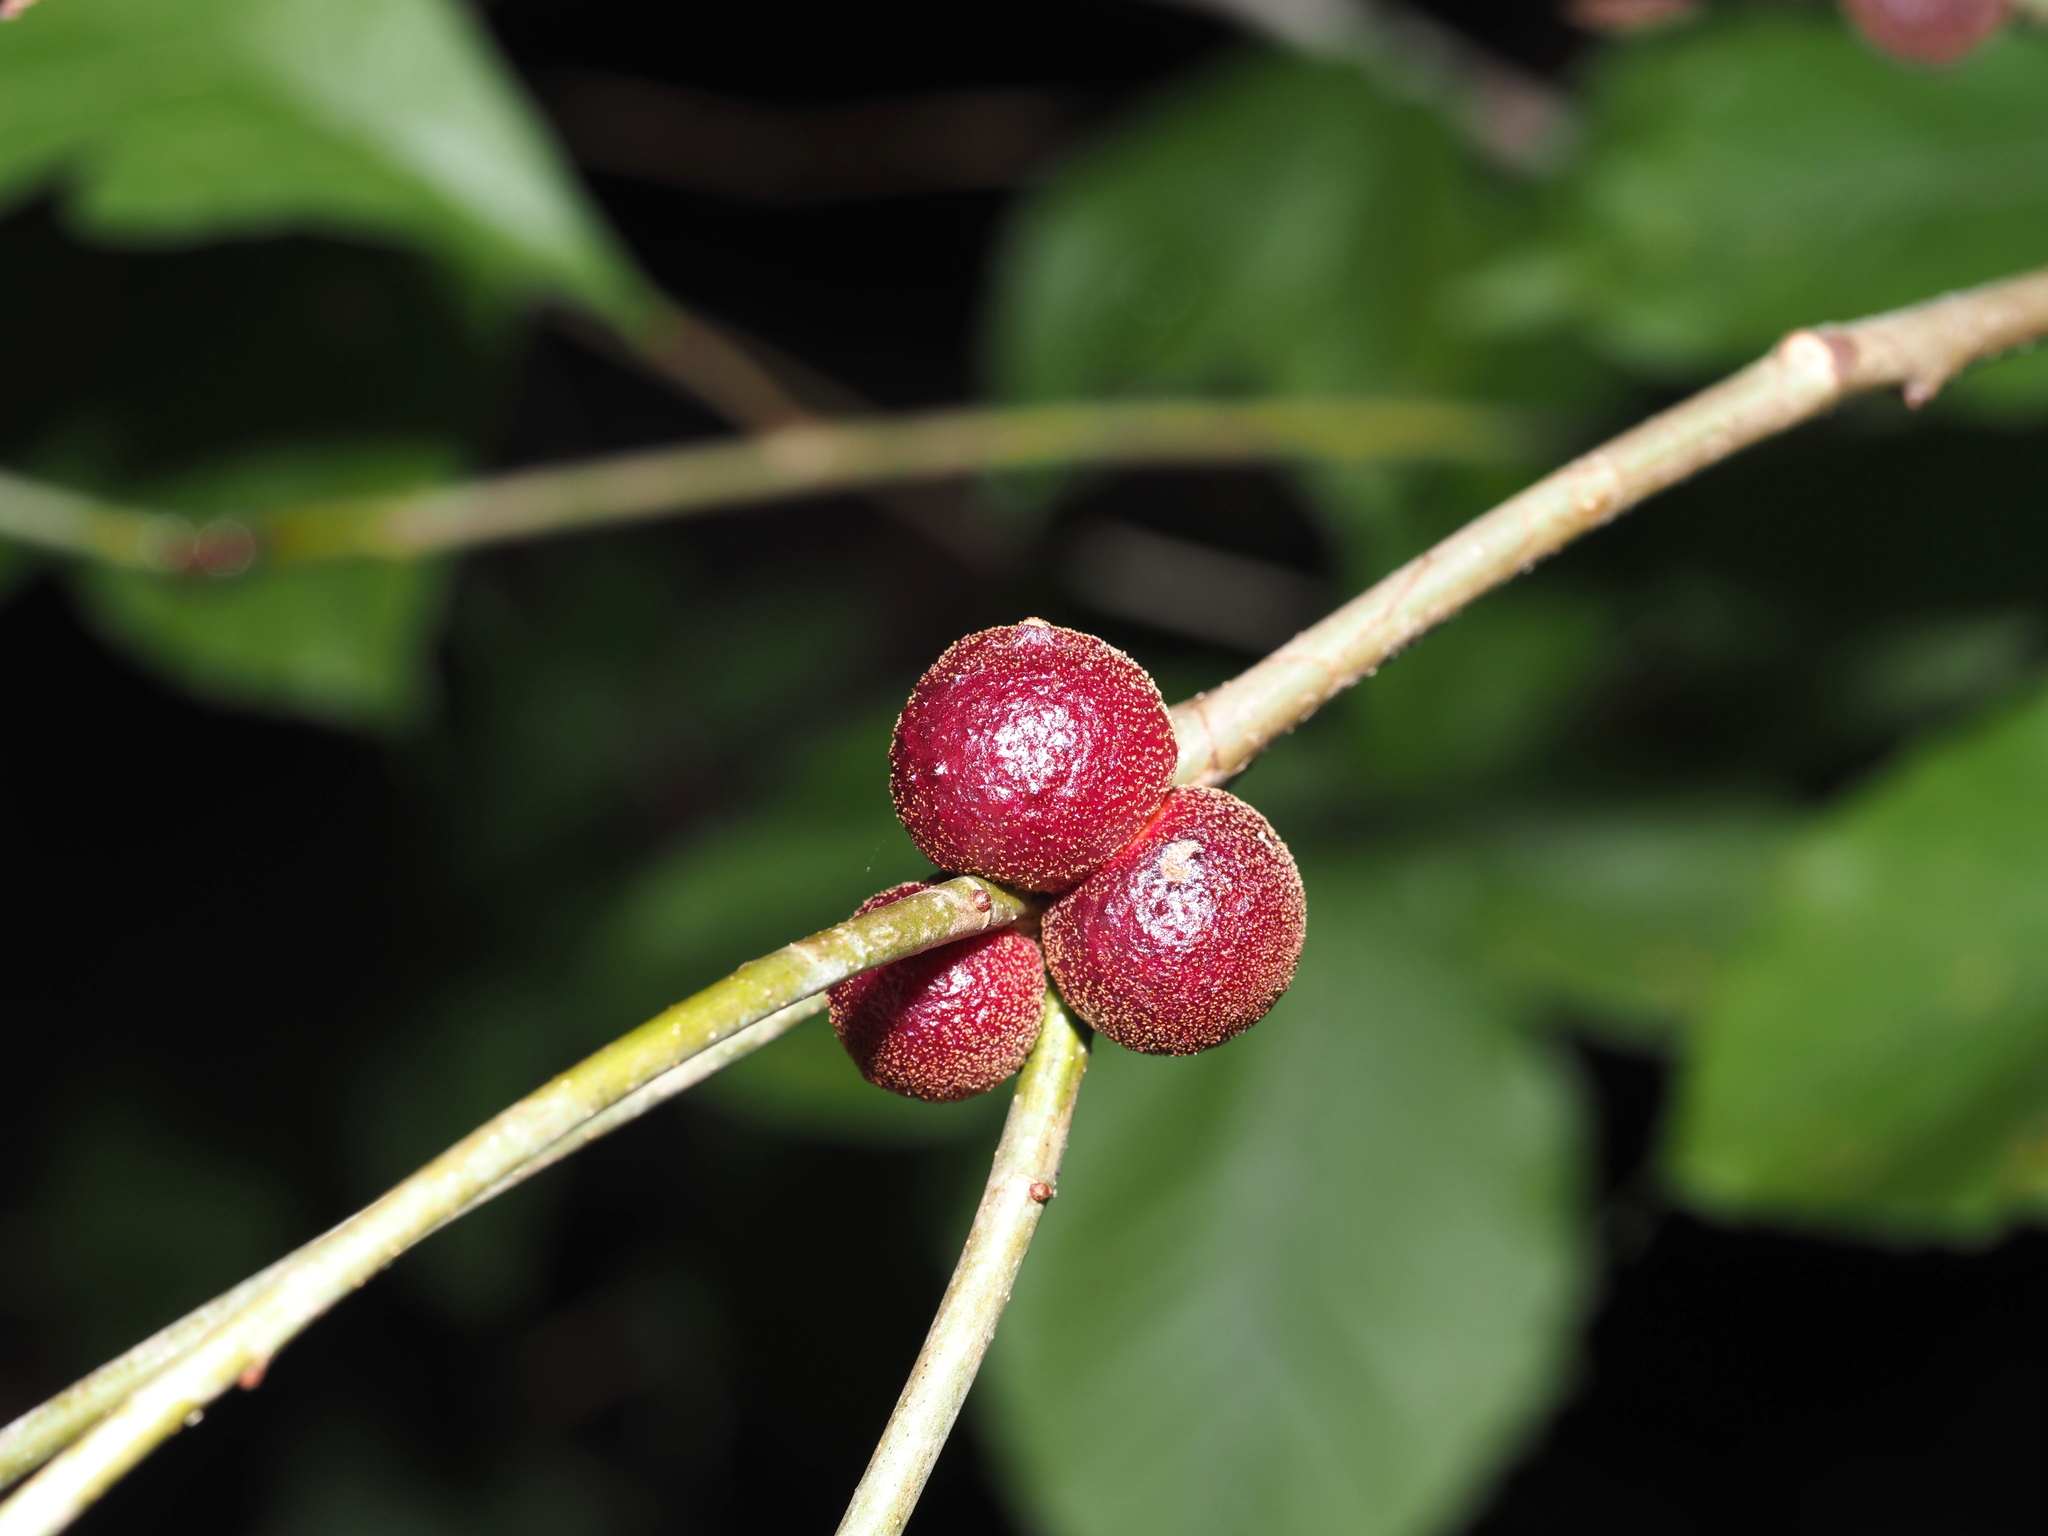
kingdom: Animalia
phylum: Arthropoda
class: Insecta
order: Hymenoptera
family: Cynipidae
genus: Disholcaspis
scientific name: Disholcaspis
